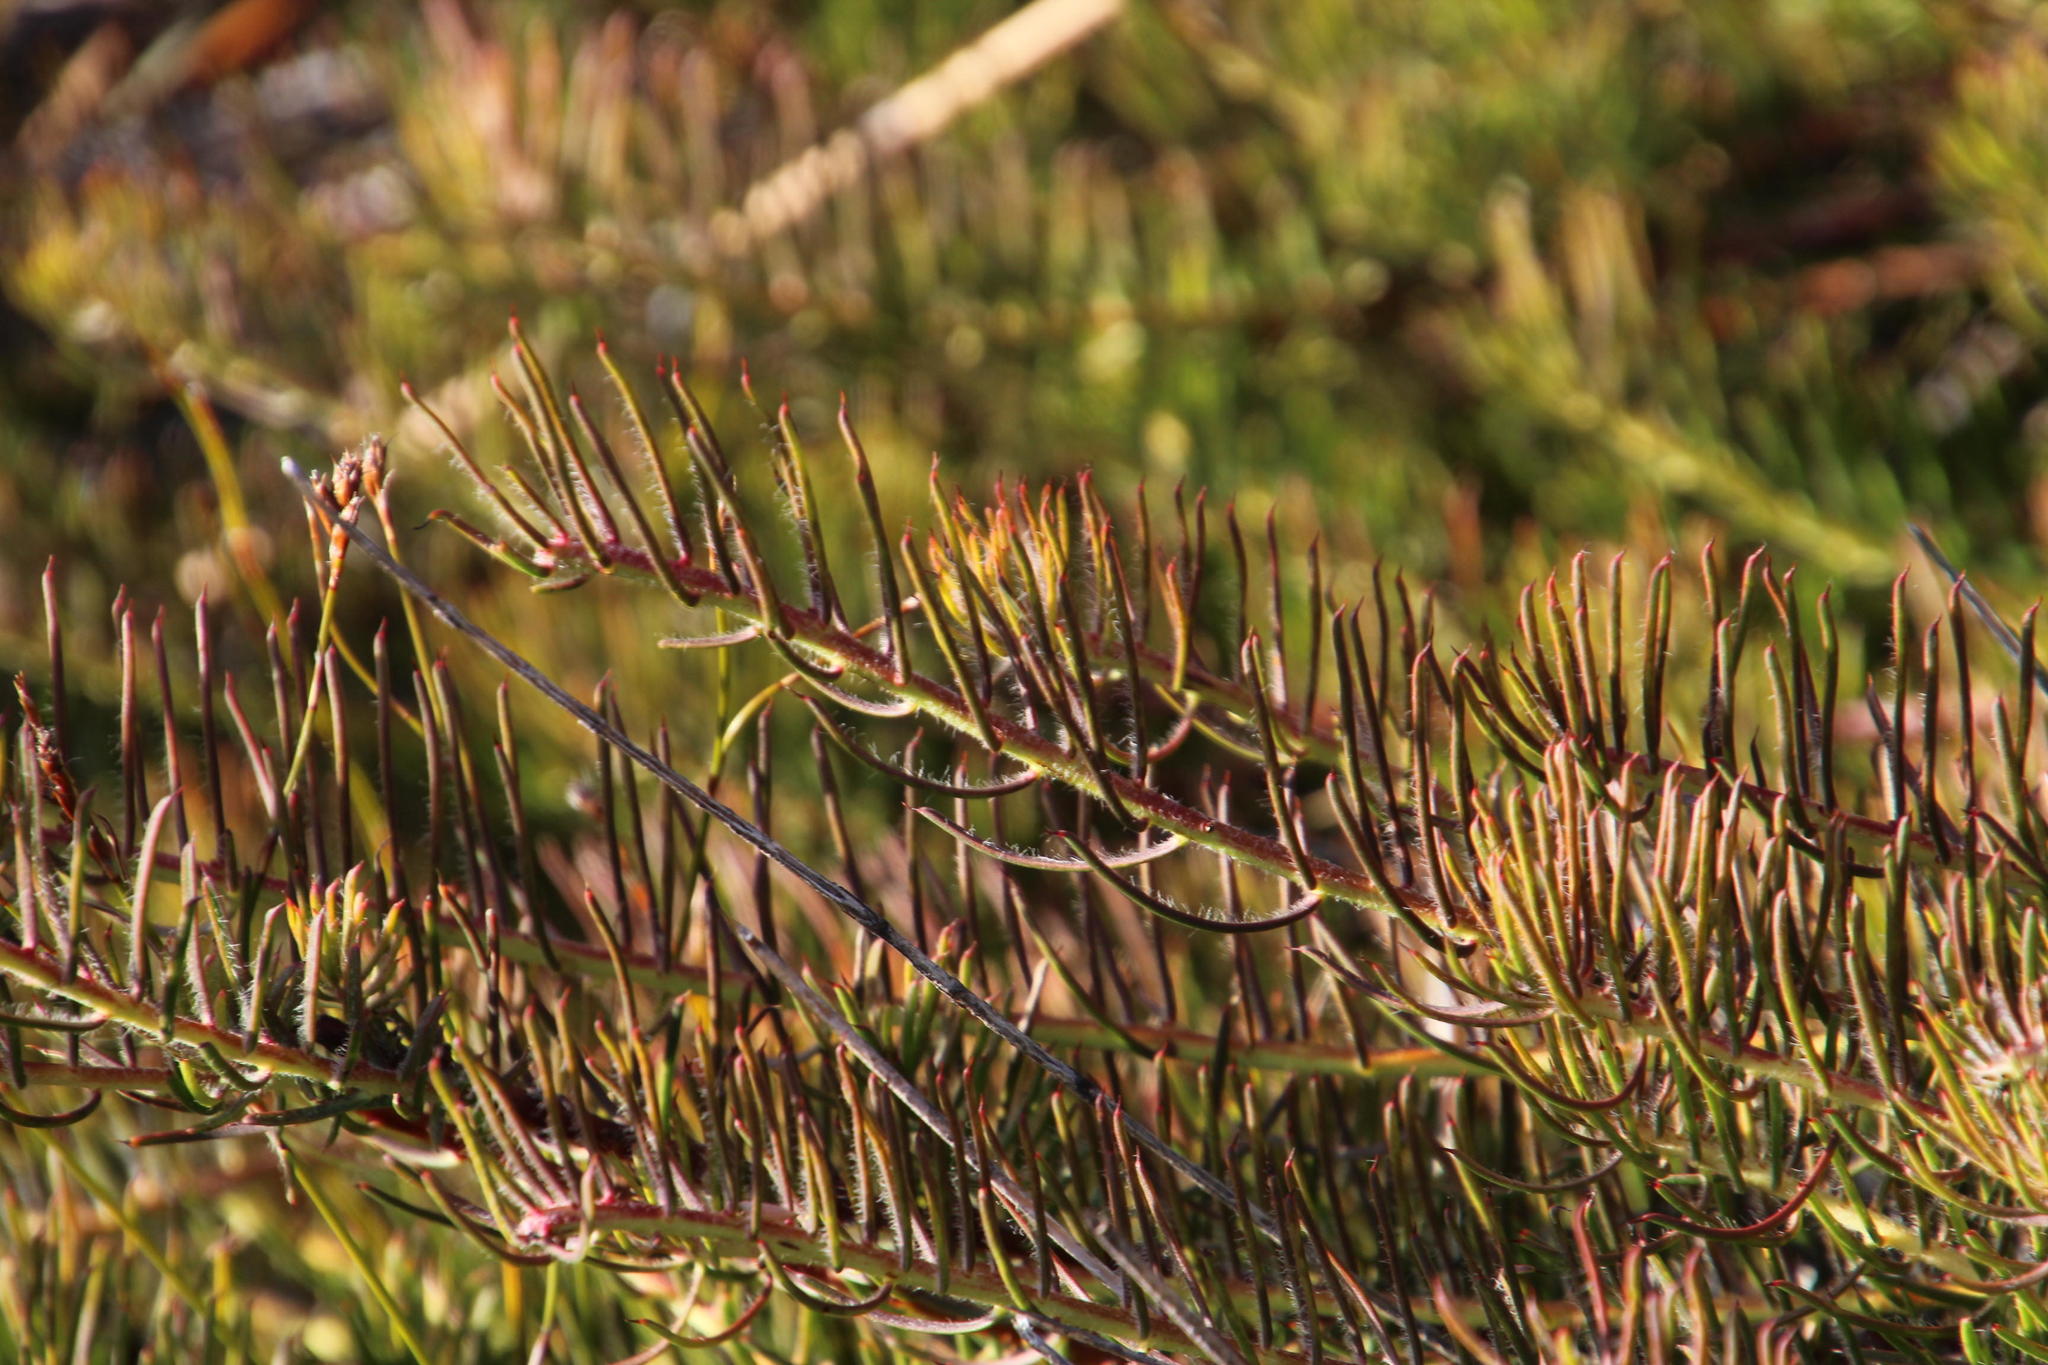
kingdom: Plantae
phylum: Tracheophyta
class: Magnoliopsida
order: Proteales
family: Proteaceae
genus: Protea
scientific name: Protea witzenbergiana
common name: Swan sugarbush
